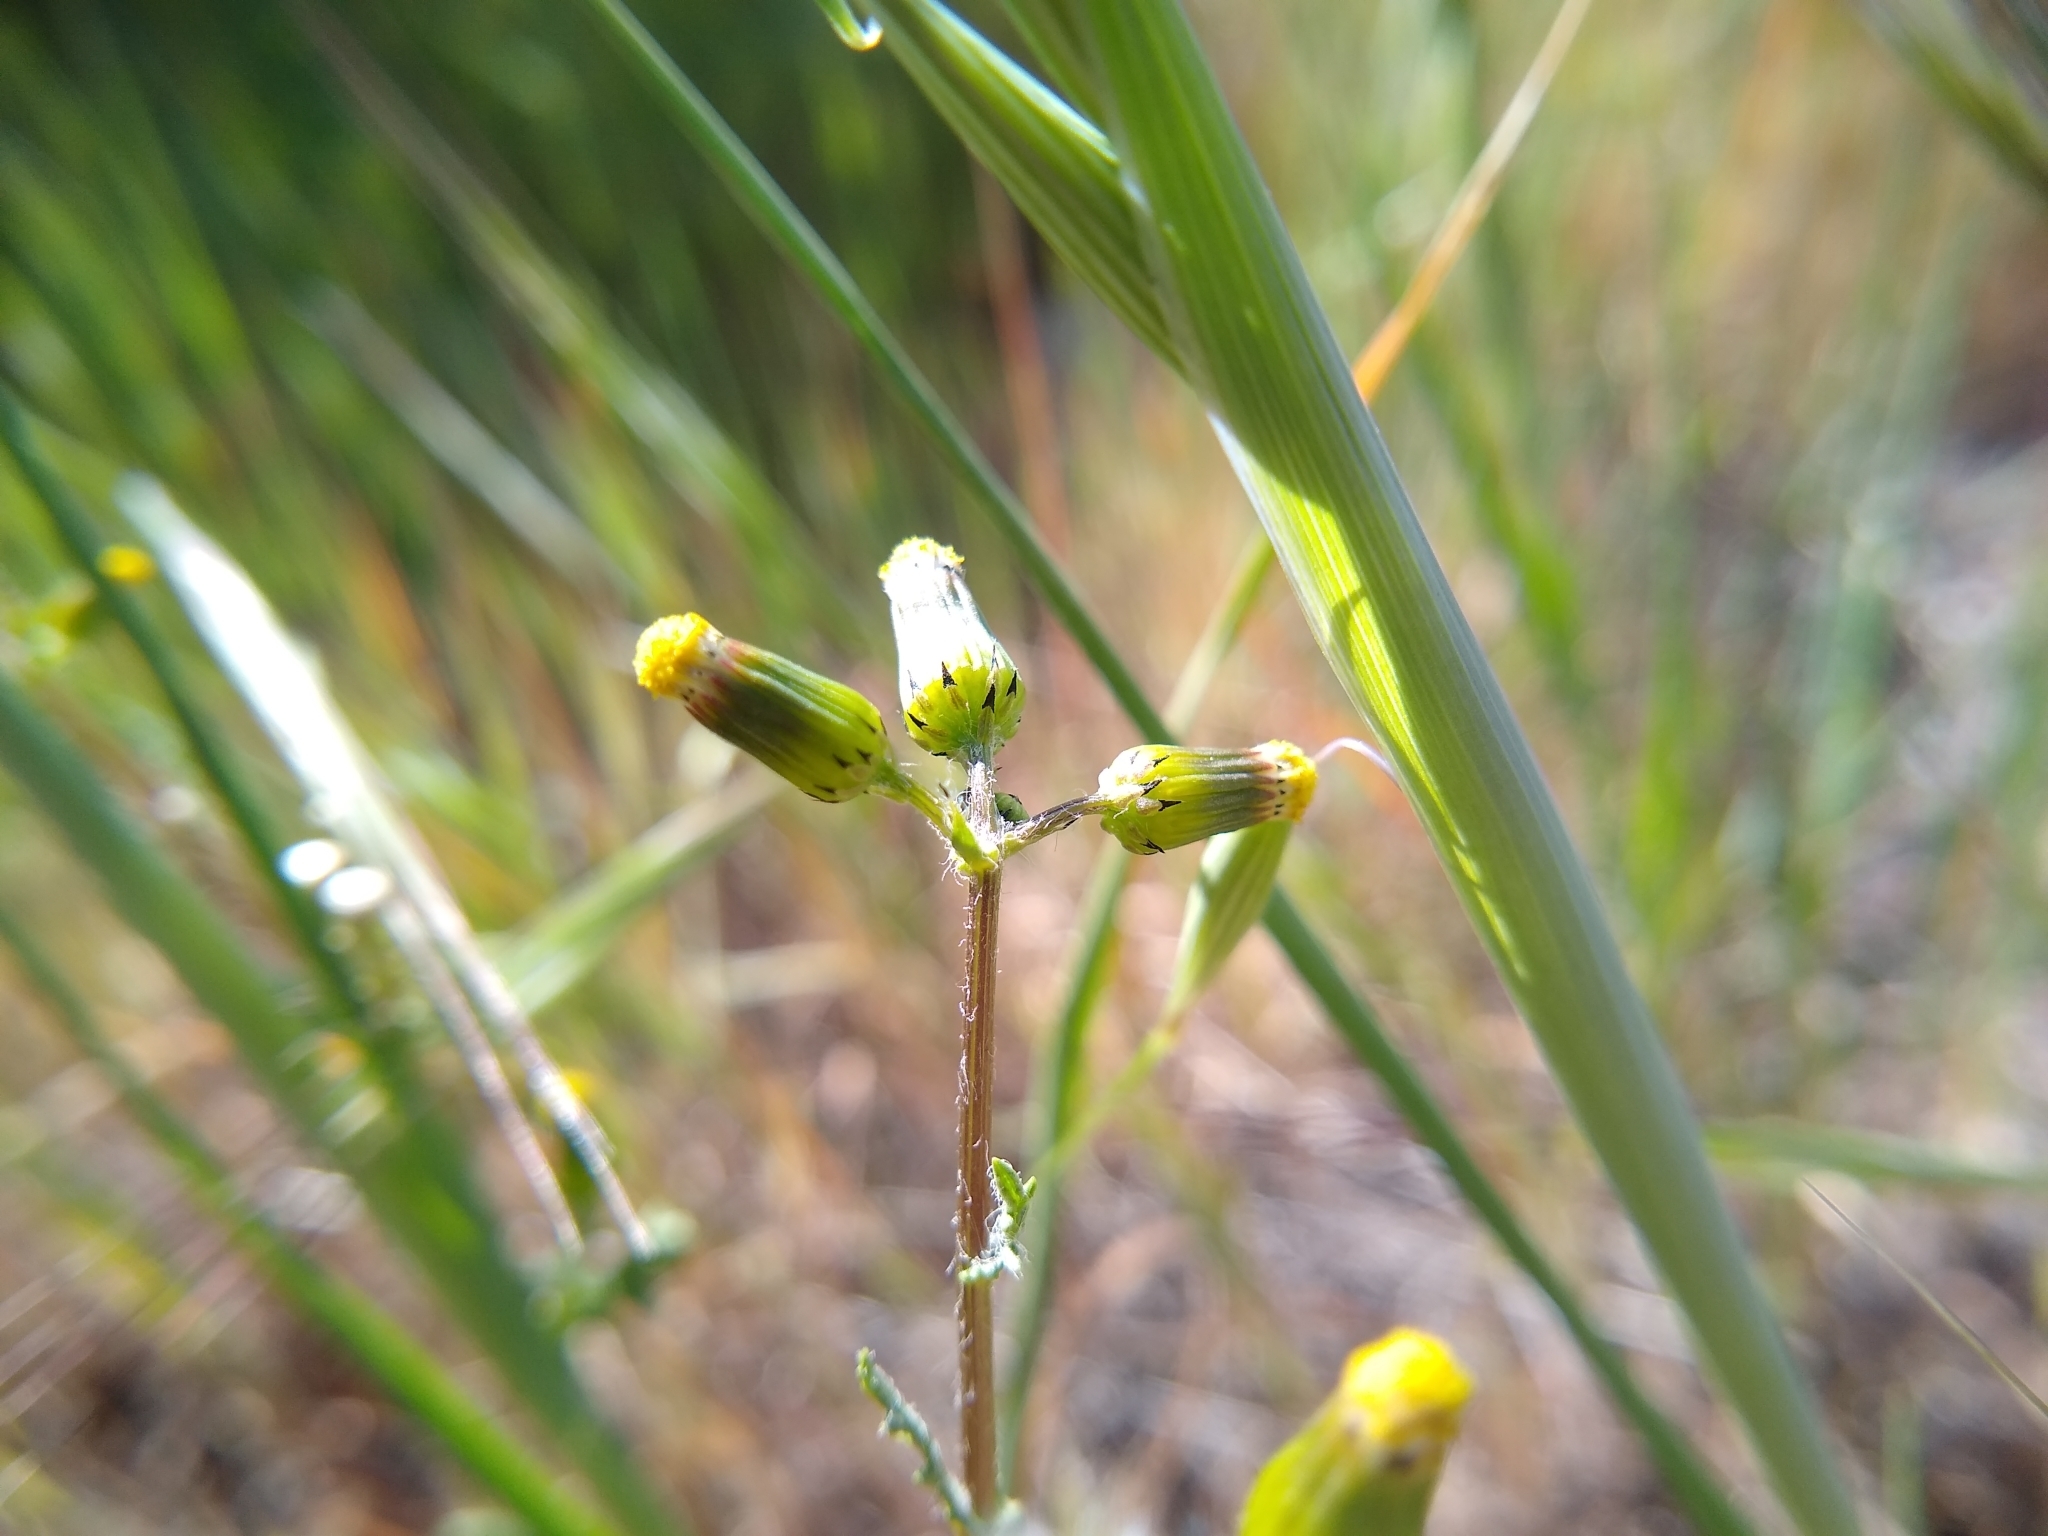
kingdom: Plantae
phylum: Tracheophyta
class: Magnoliopsida
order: Asterales
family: Asteraceae
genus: Senecio
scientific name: Senecio vulgaris
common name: Old-man-in-the-spring
